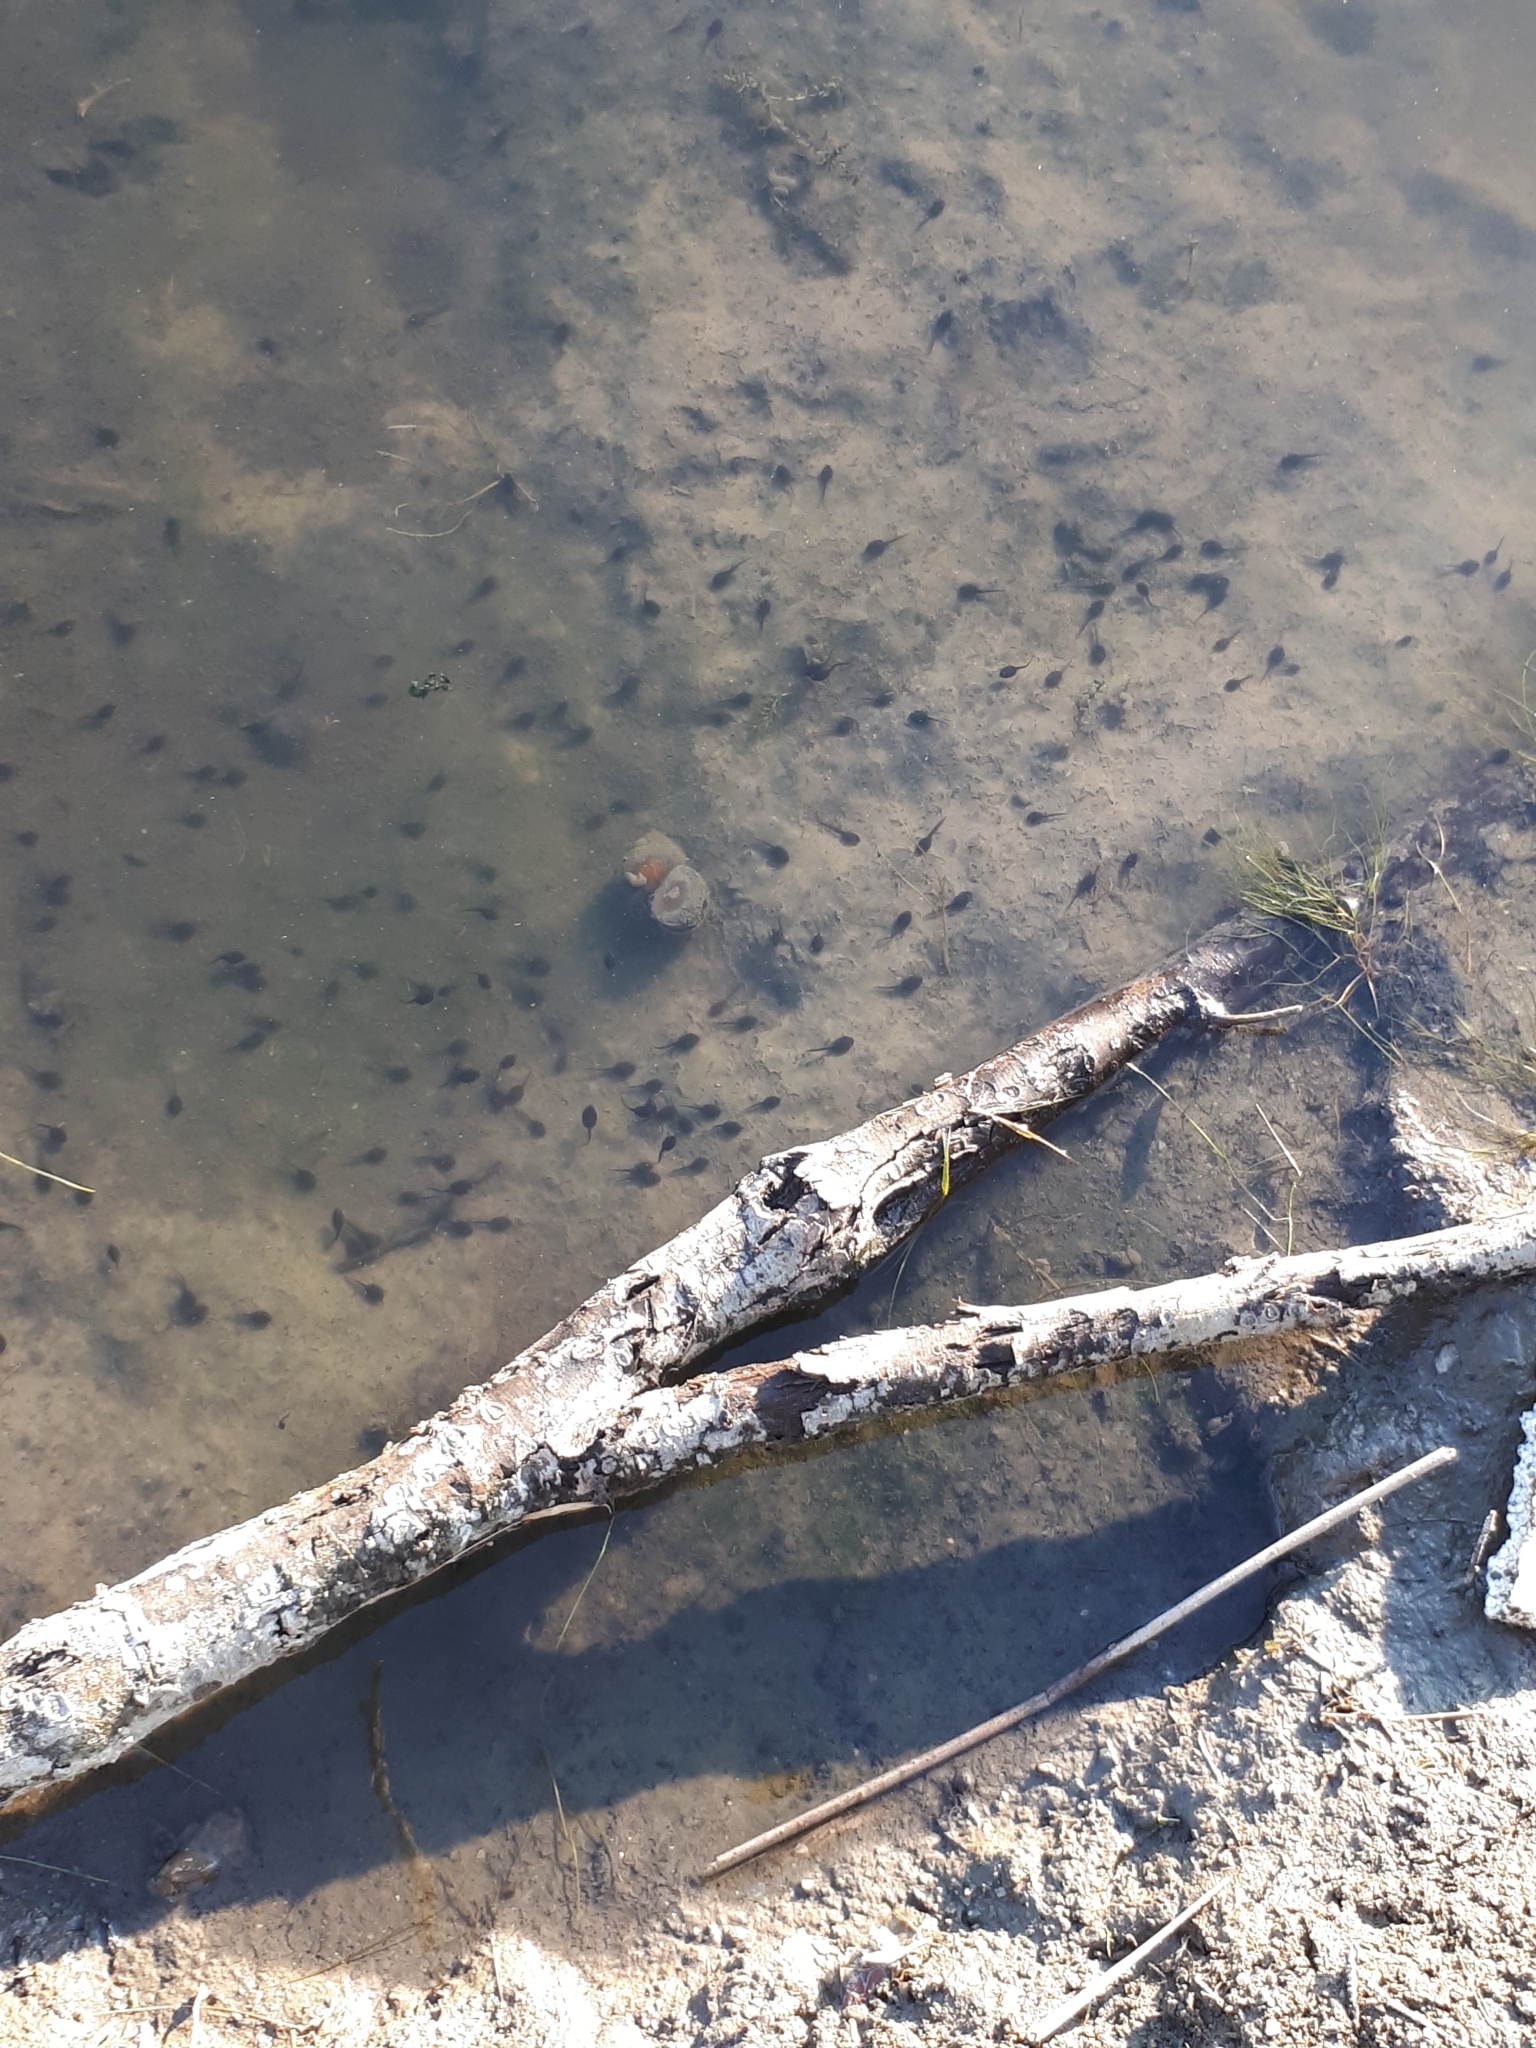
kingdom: Animalia
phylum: Chordata
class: Amphibia
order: Anura
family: Bufonidae
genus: Anaxyrus
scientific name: Anaxyrus americanus
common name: American toad
